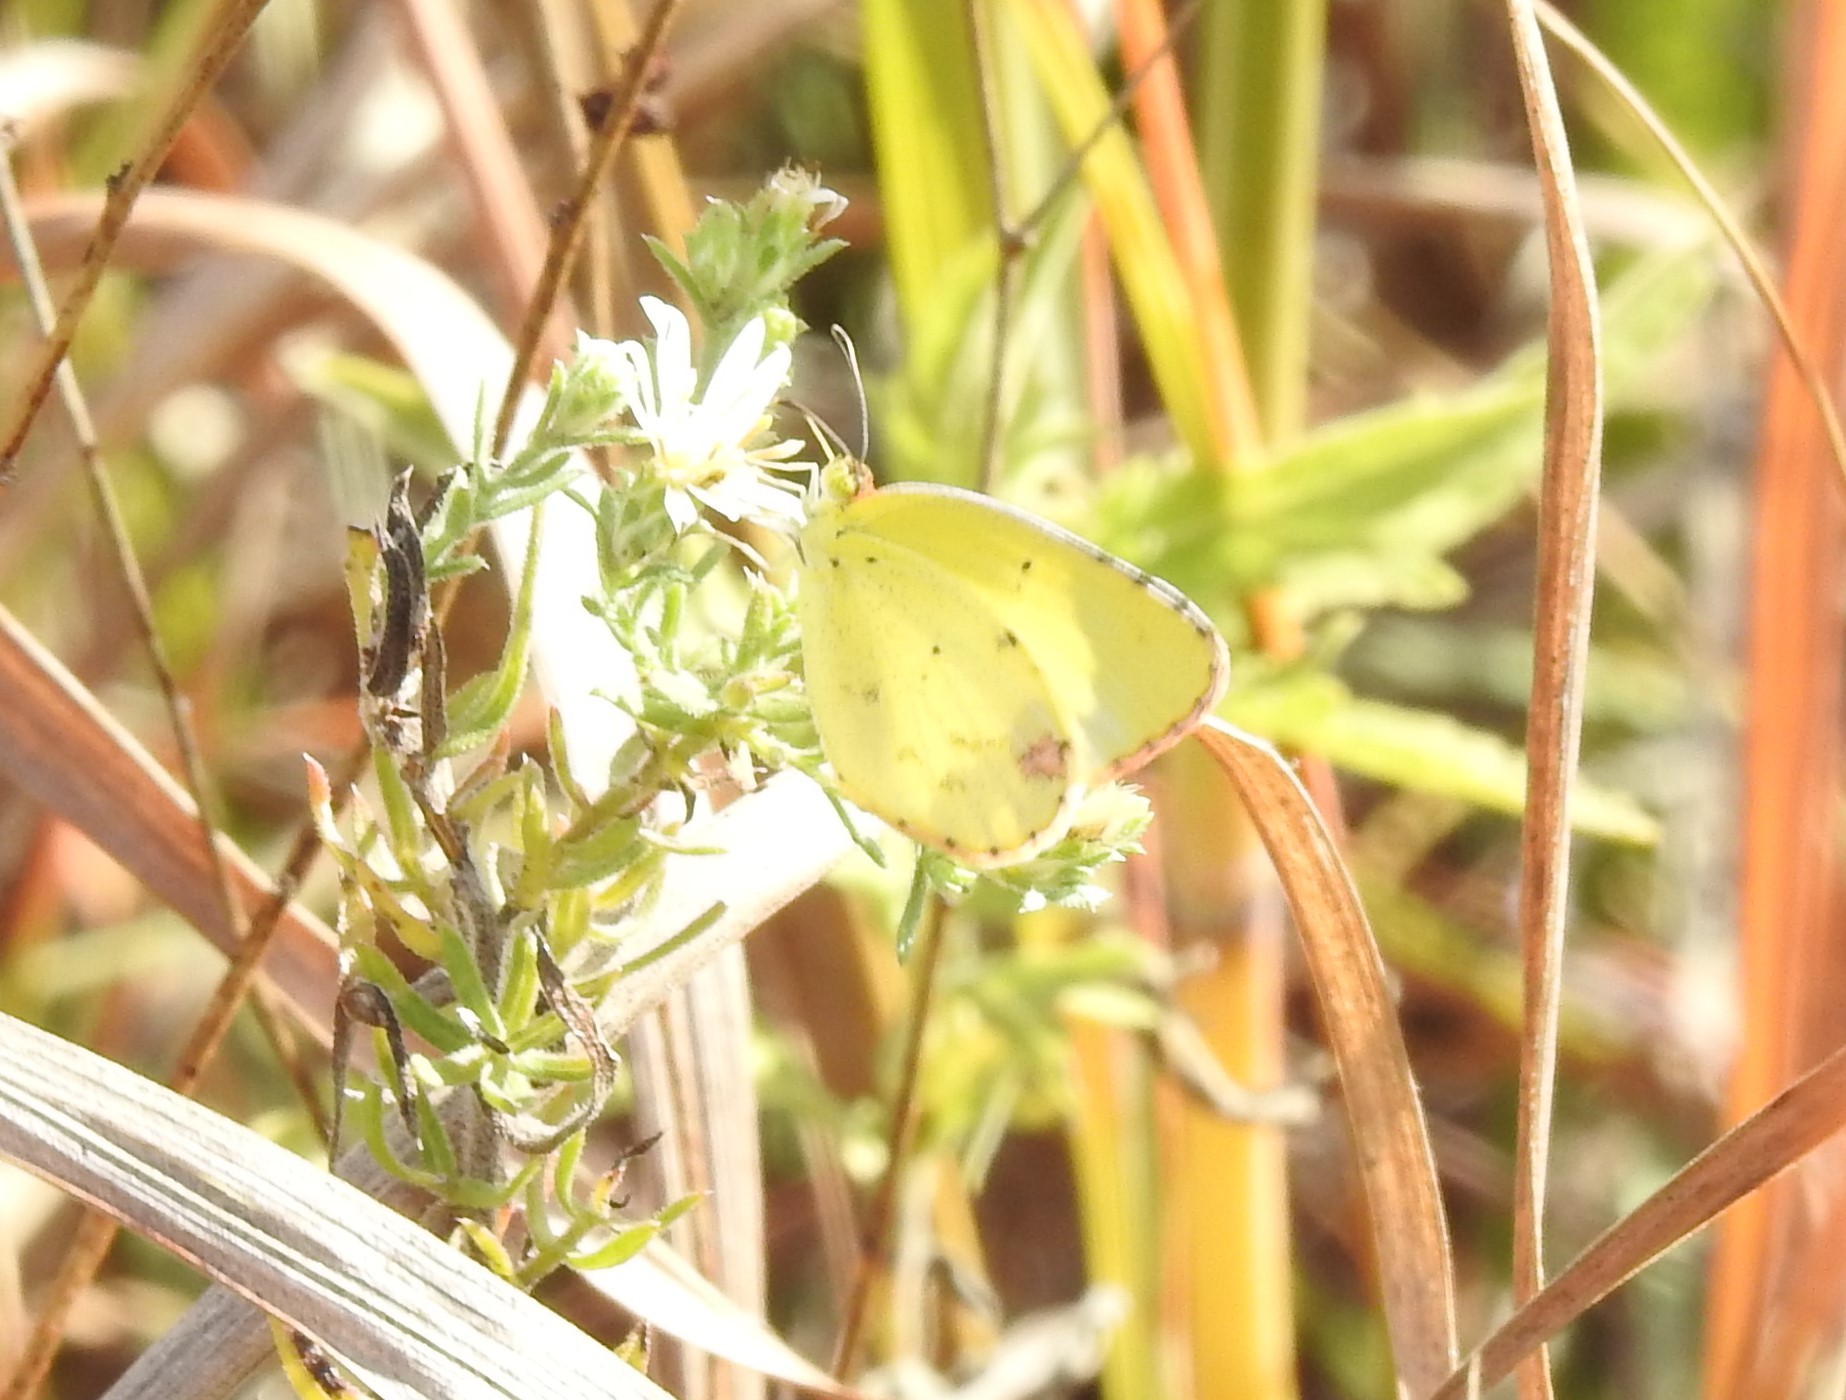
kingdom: Animalia
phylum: Arthropoda
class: Insecta
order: Lepidoptera
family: Pieridae
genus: Pyrisitia
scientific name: Pyrisitia lisa
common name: Little yellow
